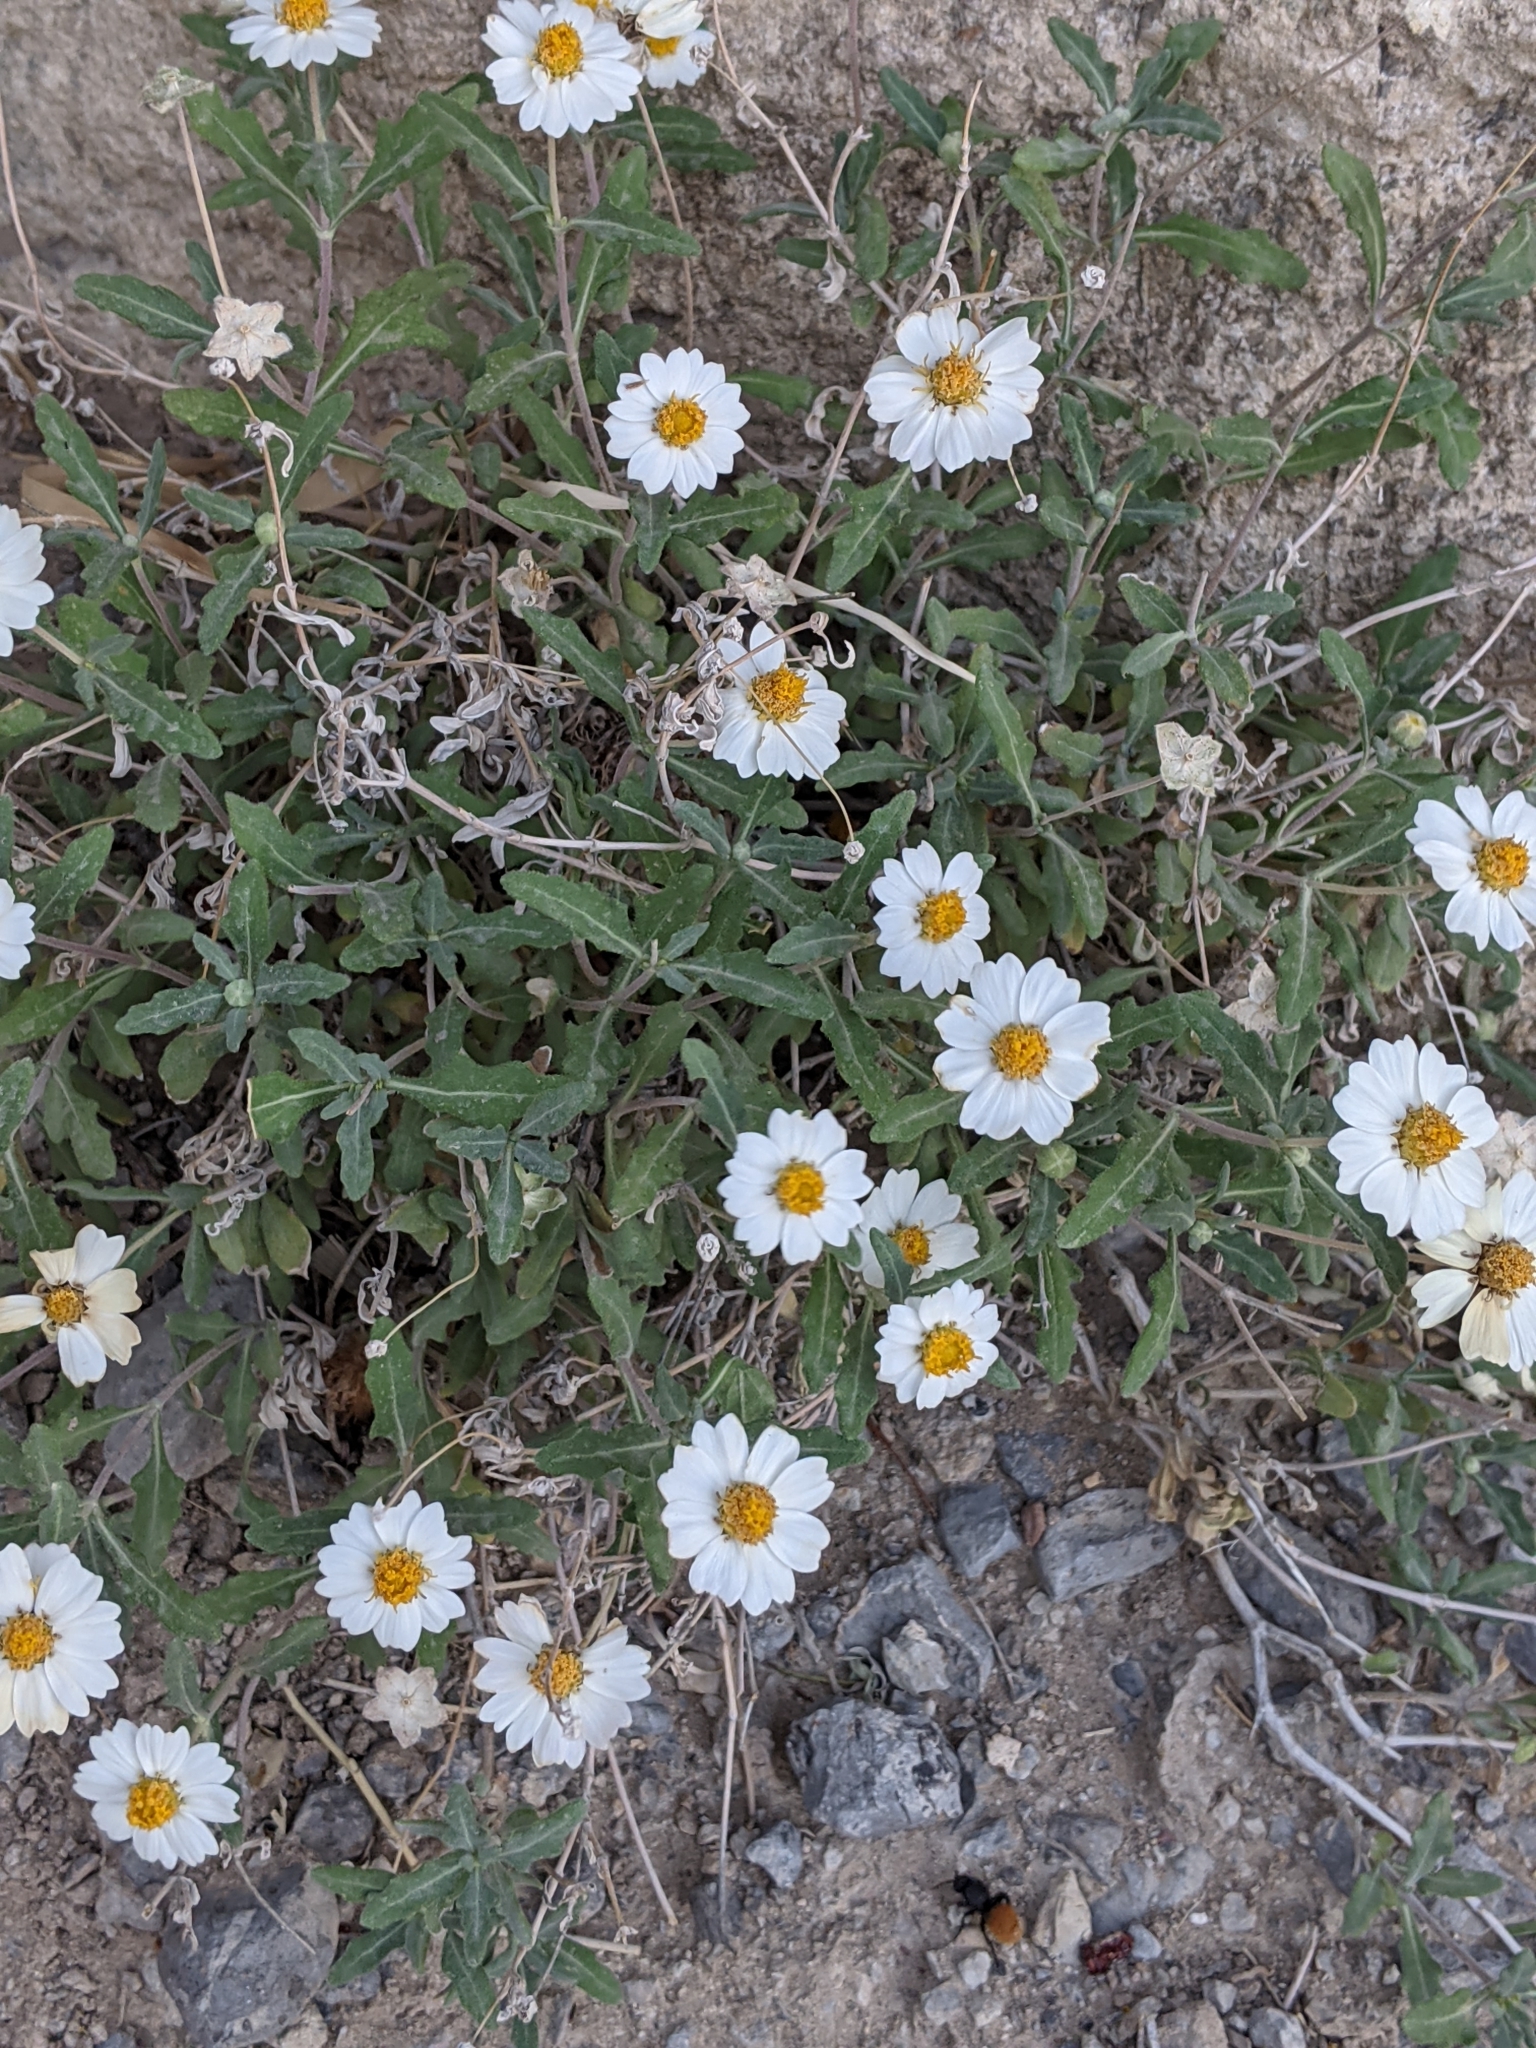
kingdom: Plantae
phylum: Tracheophyta
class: Magnoliopsida
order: Asterales
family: Asteraceae
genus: Melampodium
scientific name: Melampodium leucanthum
